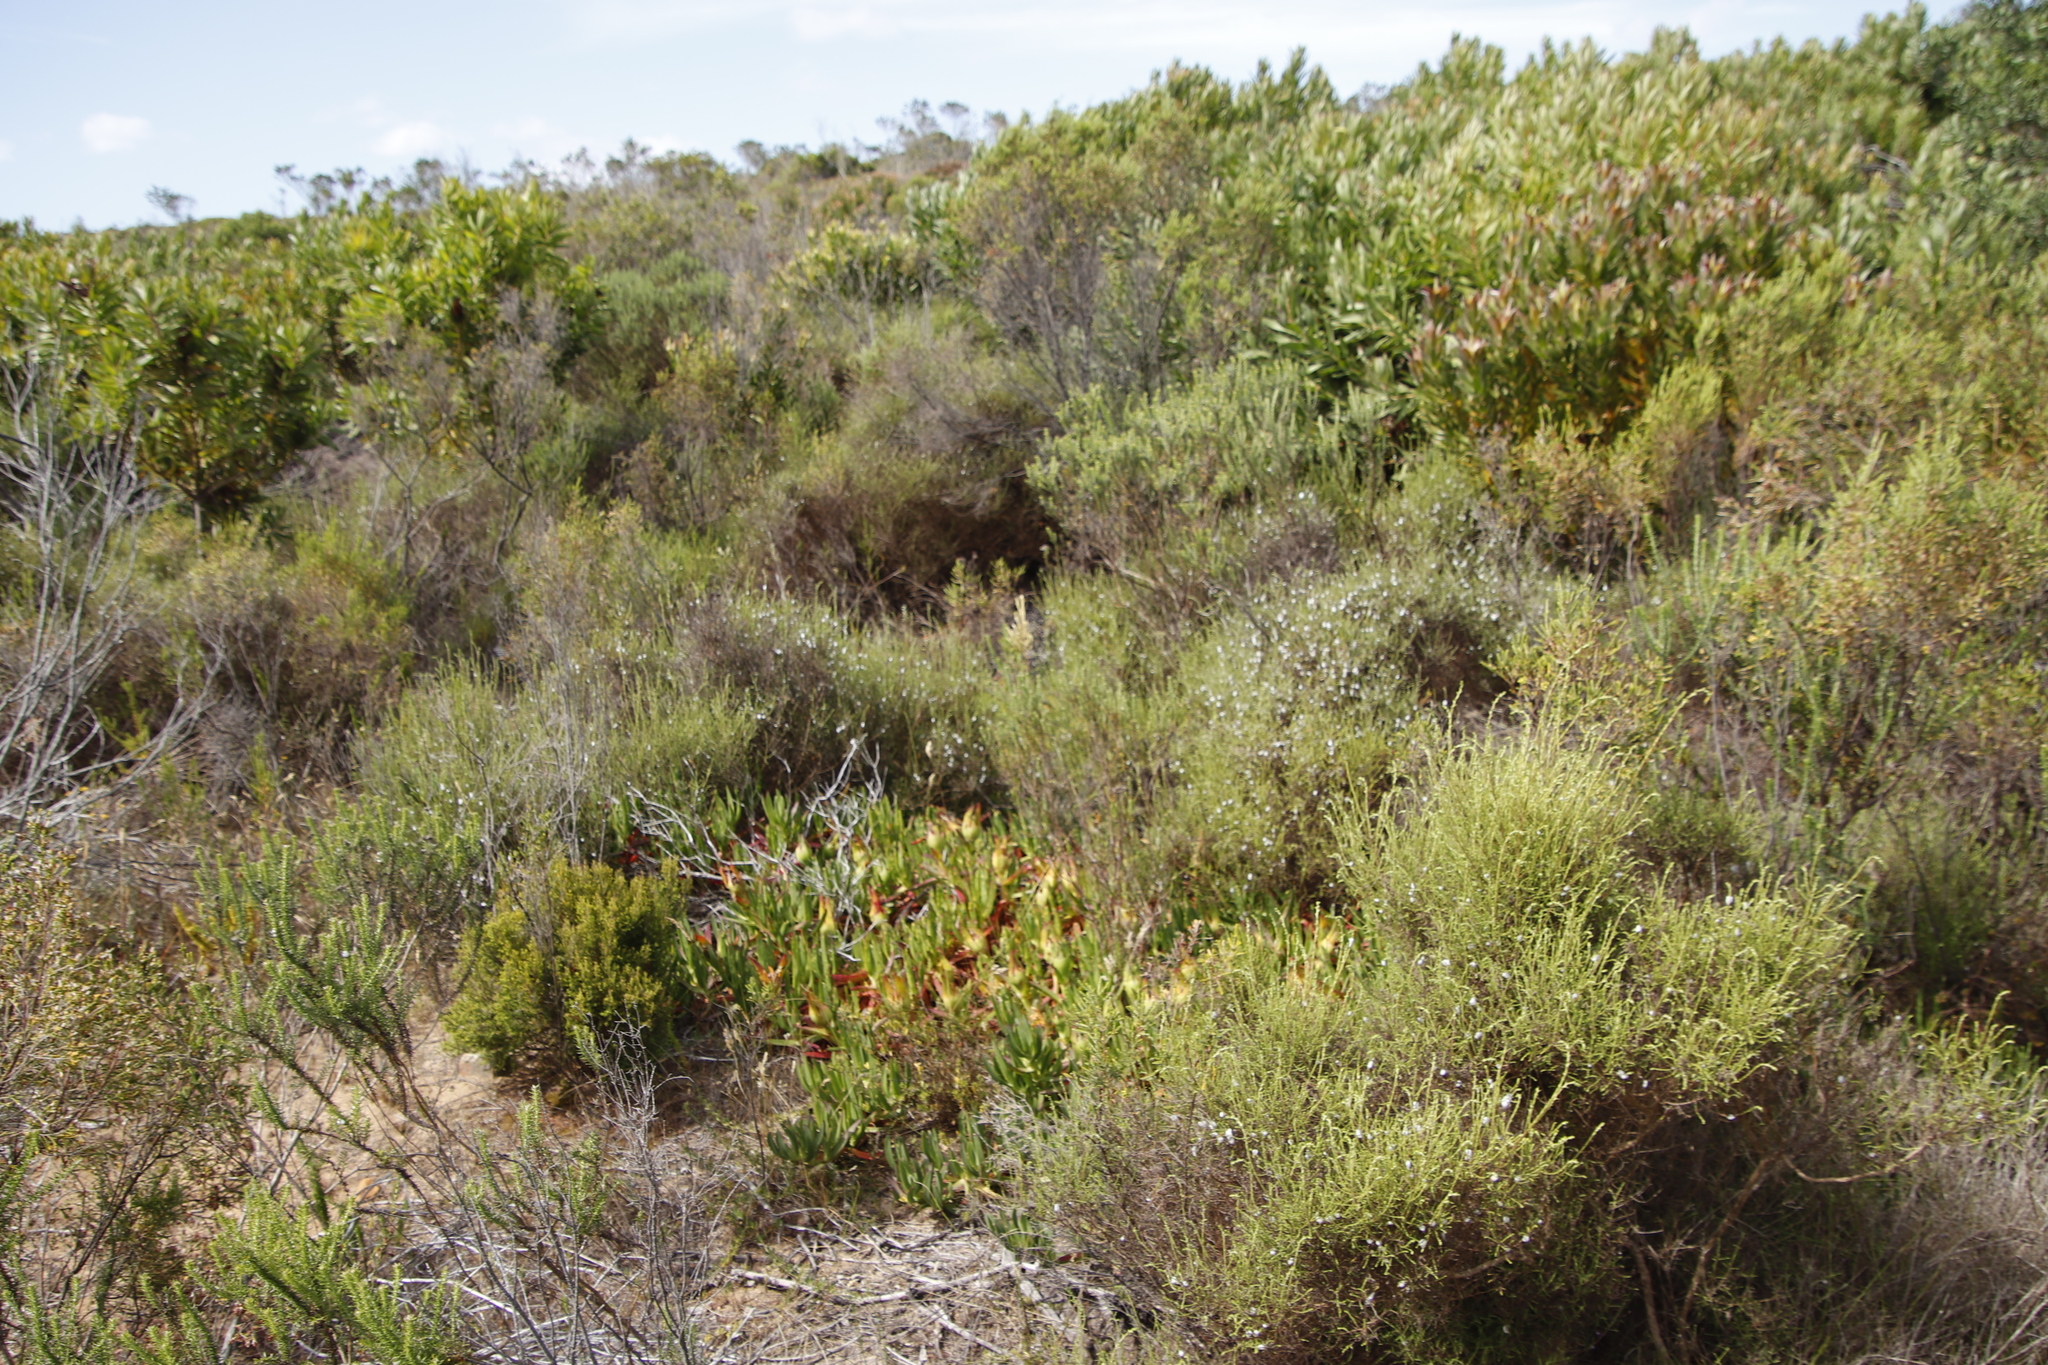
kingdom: Plantae
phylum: Tracheophyta
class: Magnoliopsida
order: Asterales
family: Asteraceae
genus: Myrovernix
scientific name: Myrovernix scaber
